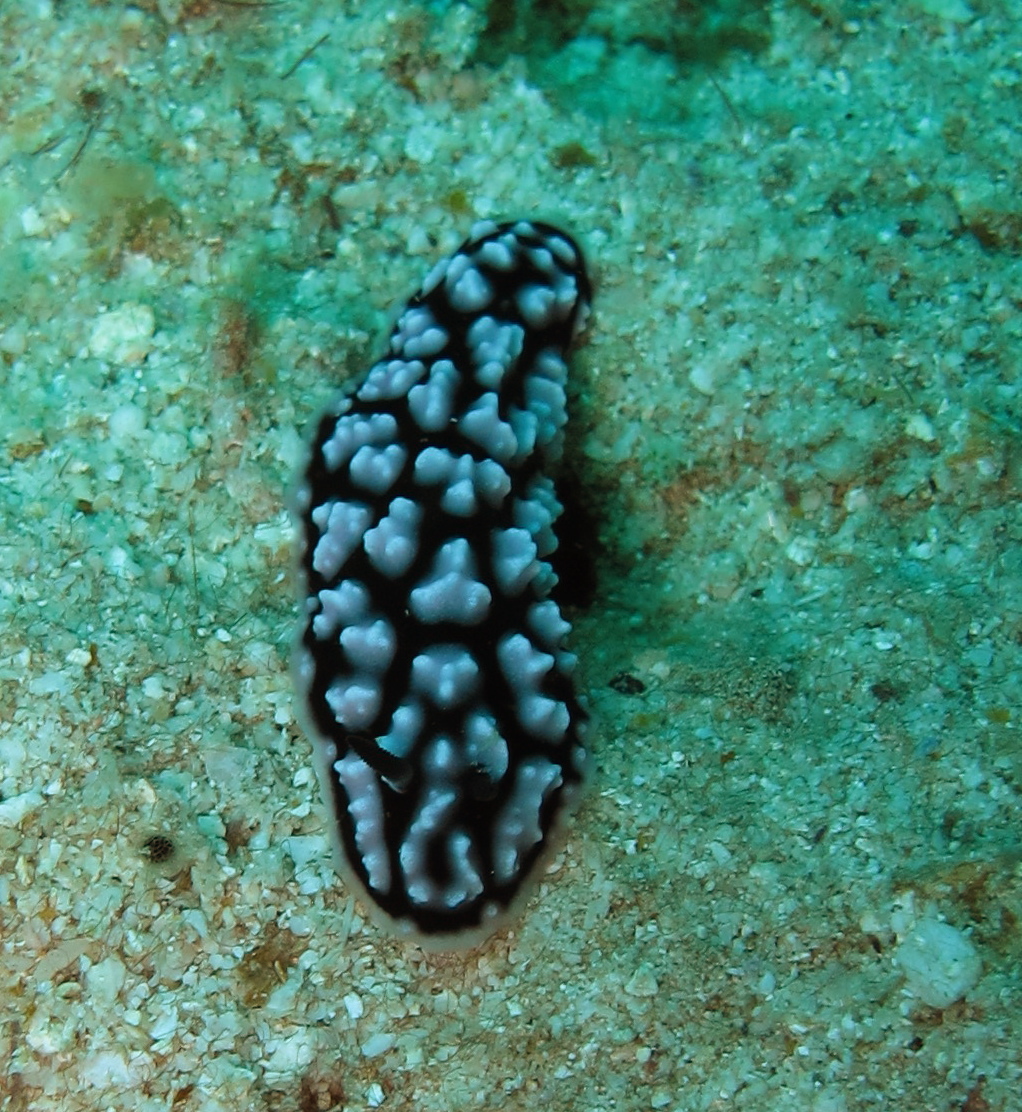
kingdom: Animalia
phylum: Mollusca
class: Gastropoda
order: Nudibranchia
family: Phyllidiidae
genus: Phyllidiella
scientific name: Phyllidiella pustulosa
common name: Pustular phyllidia
